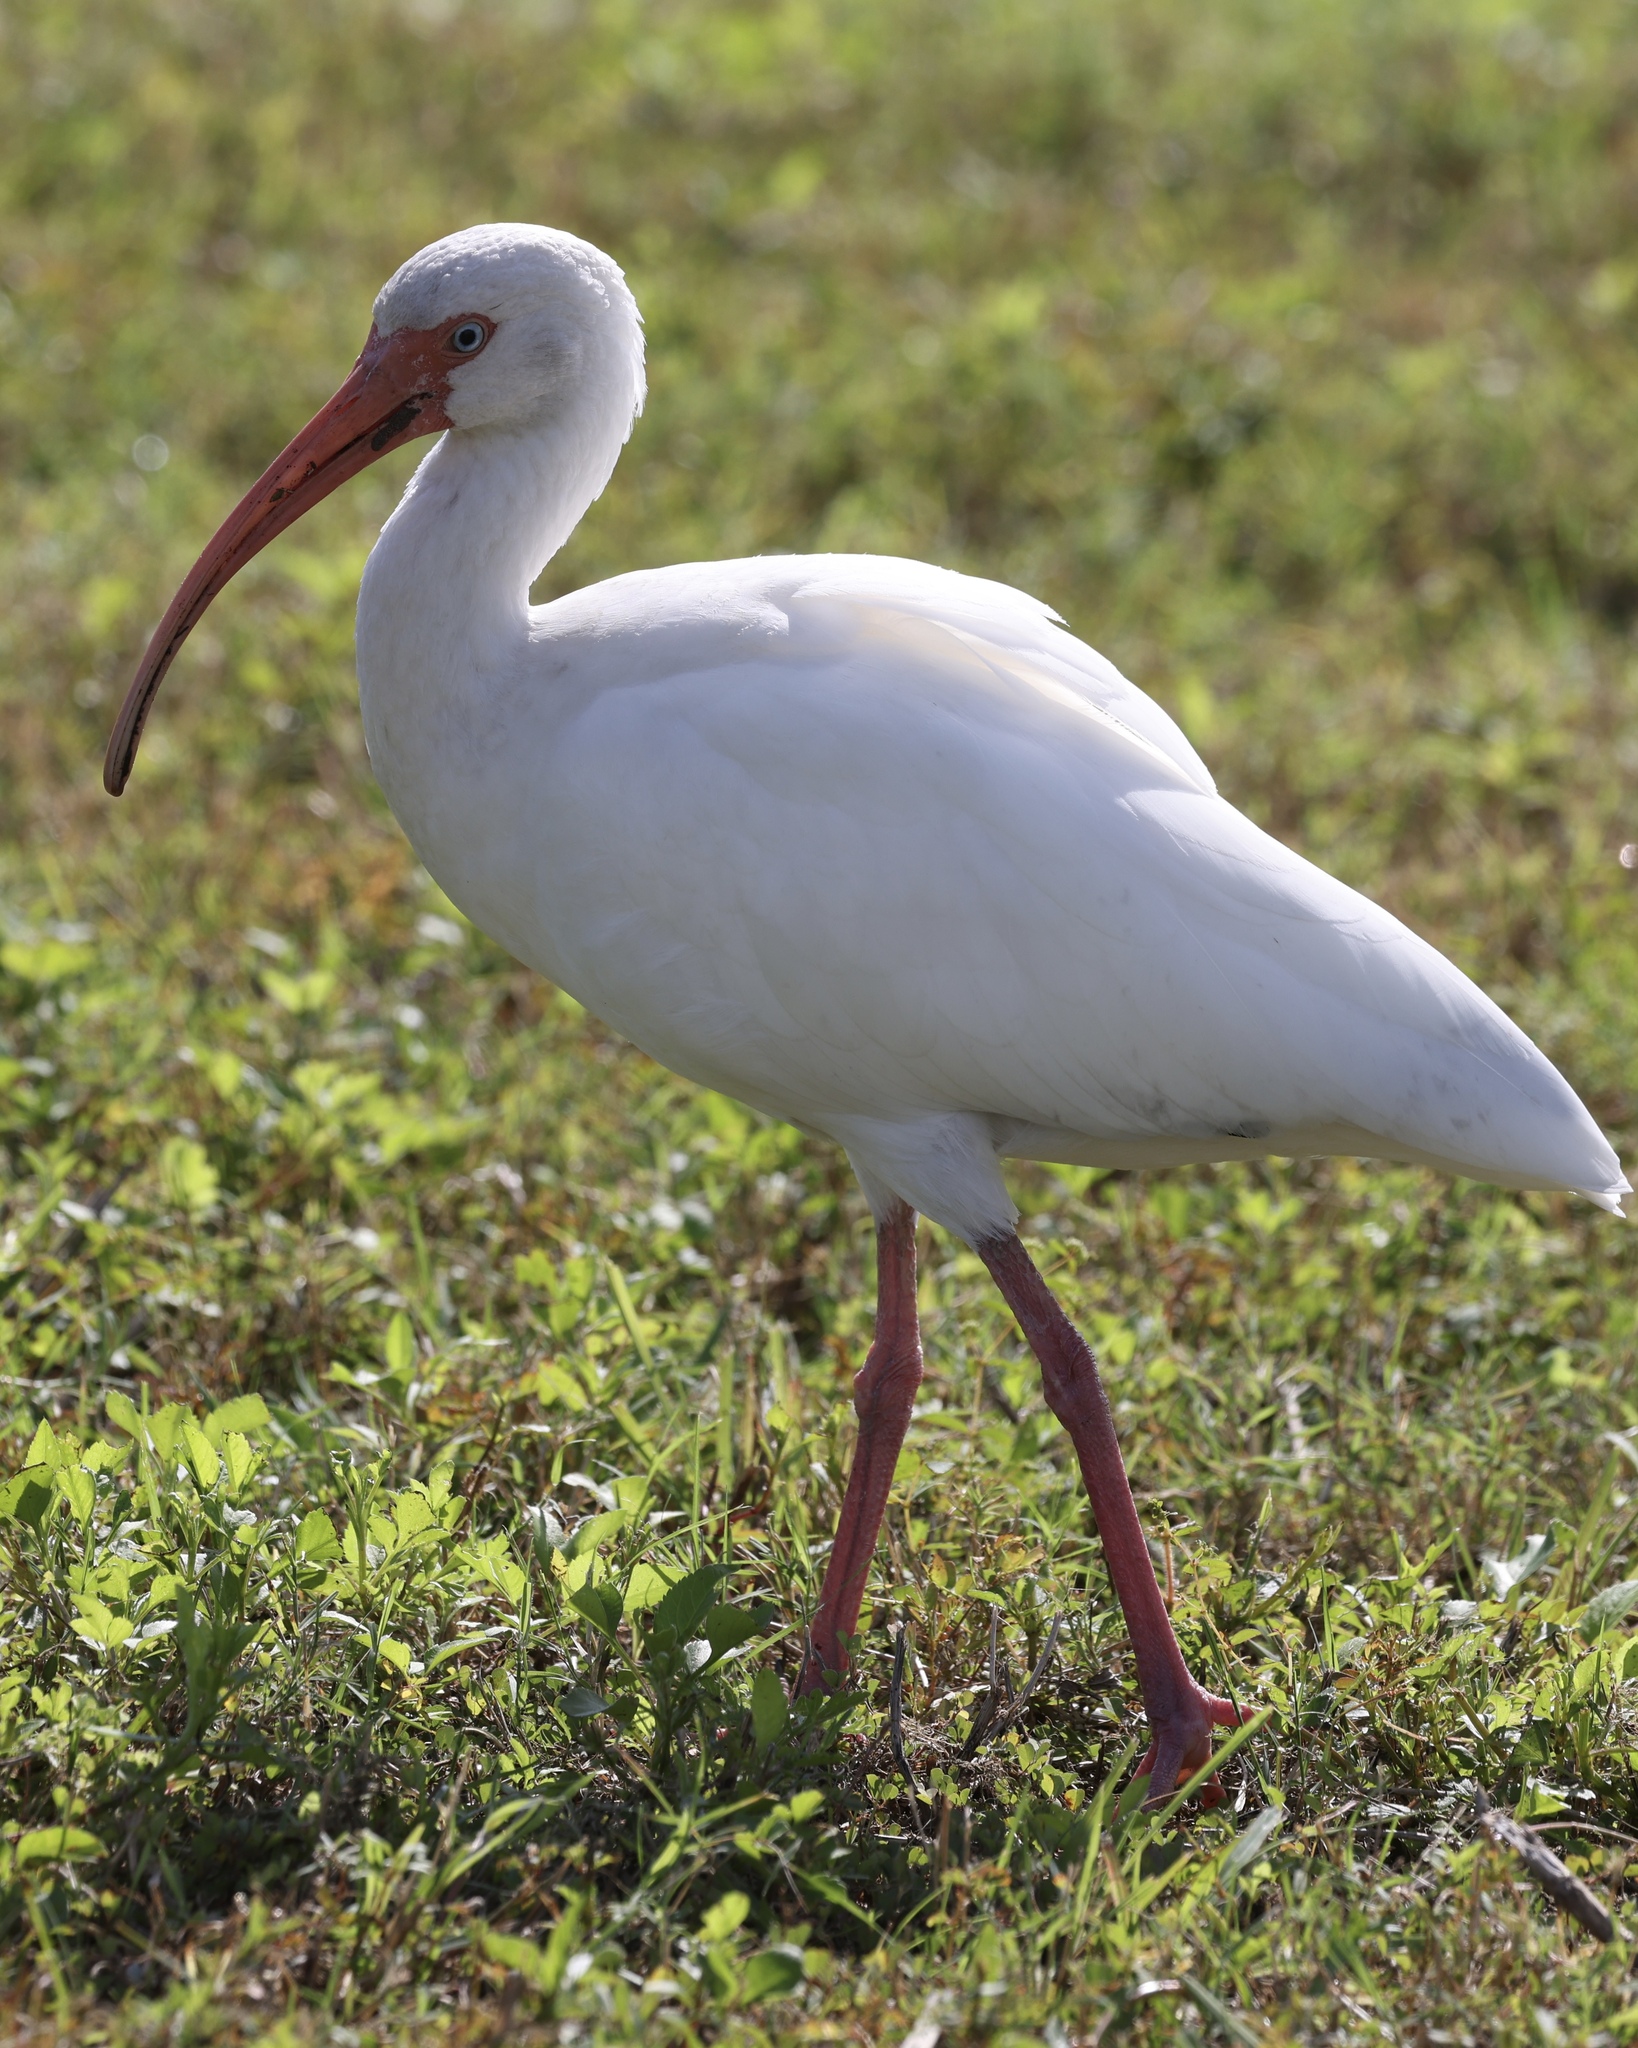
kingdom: Animalia
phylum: Chordata
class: Aves
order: Pelecaniformes
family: Threskiornithidae
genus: Eudocimus
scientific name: Eudocimus albus
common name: White ibis
